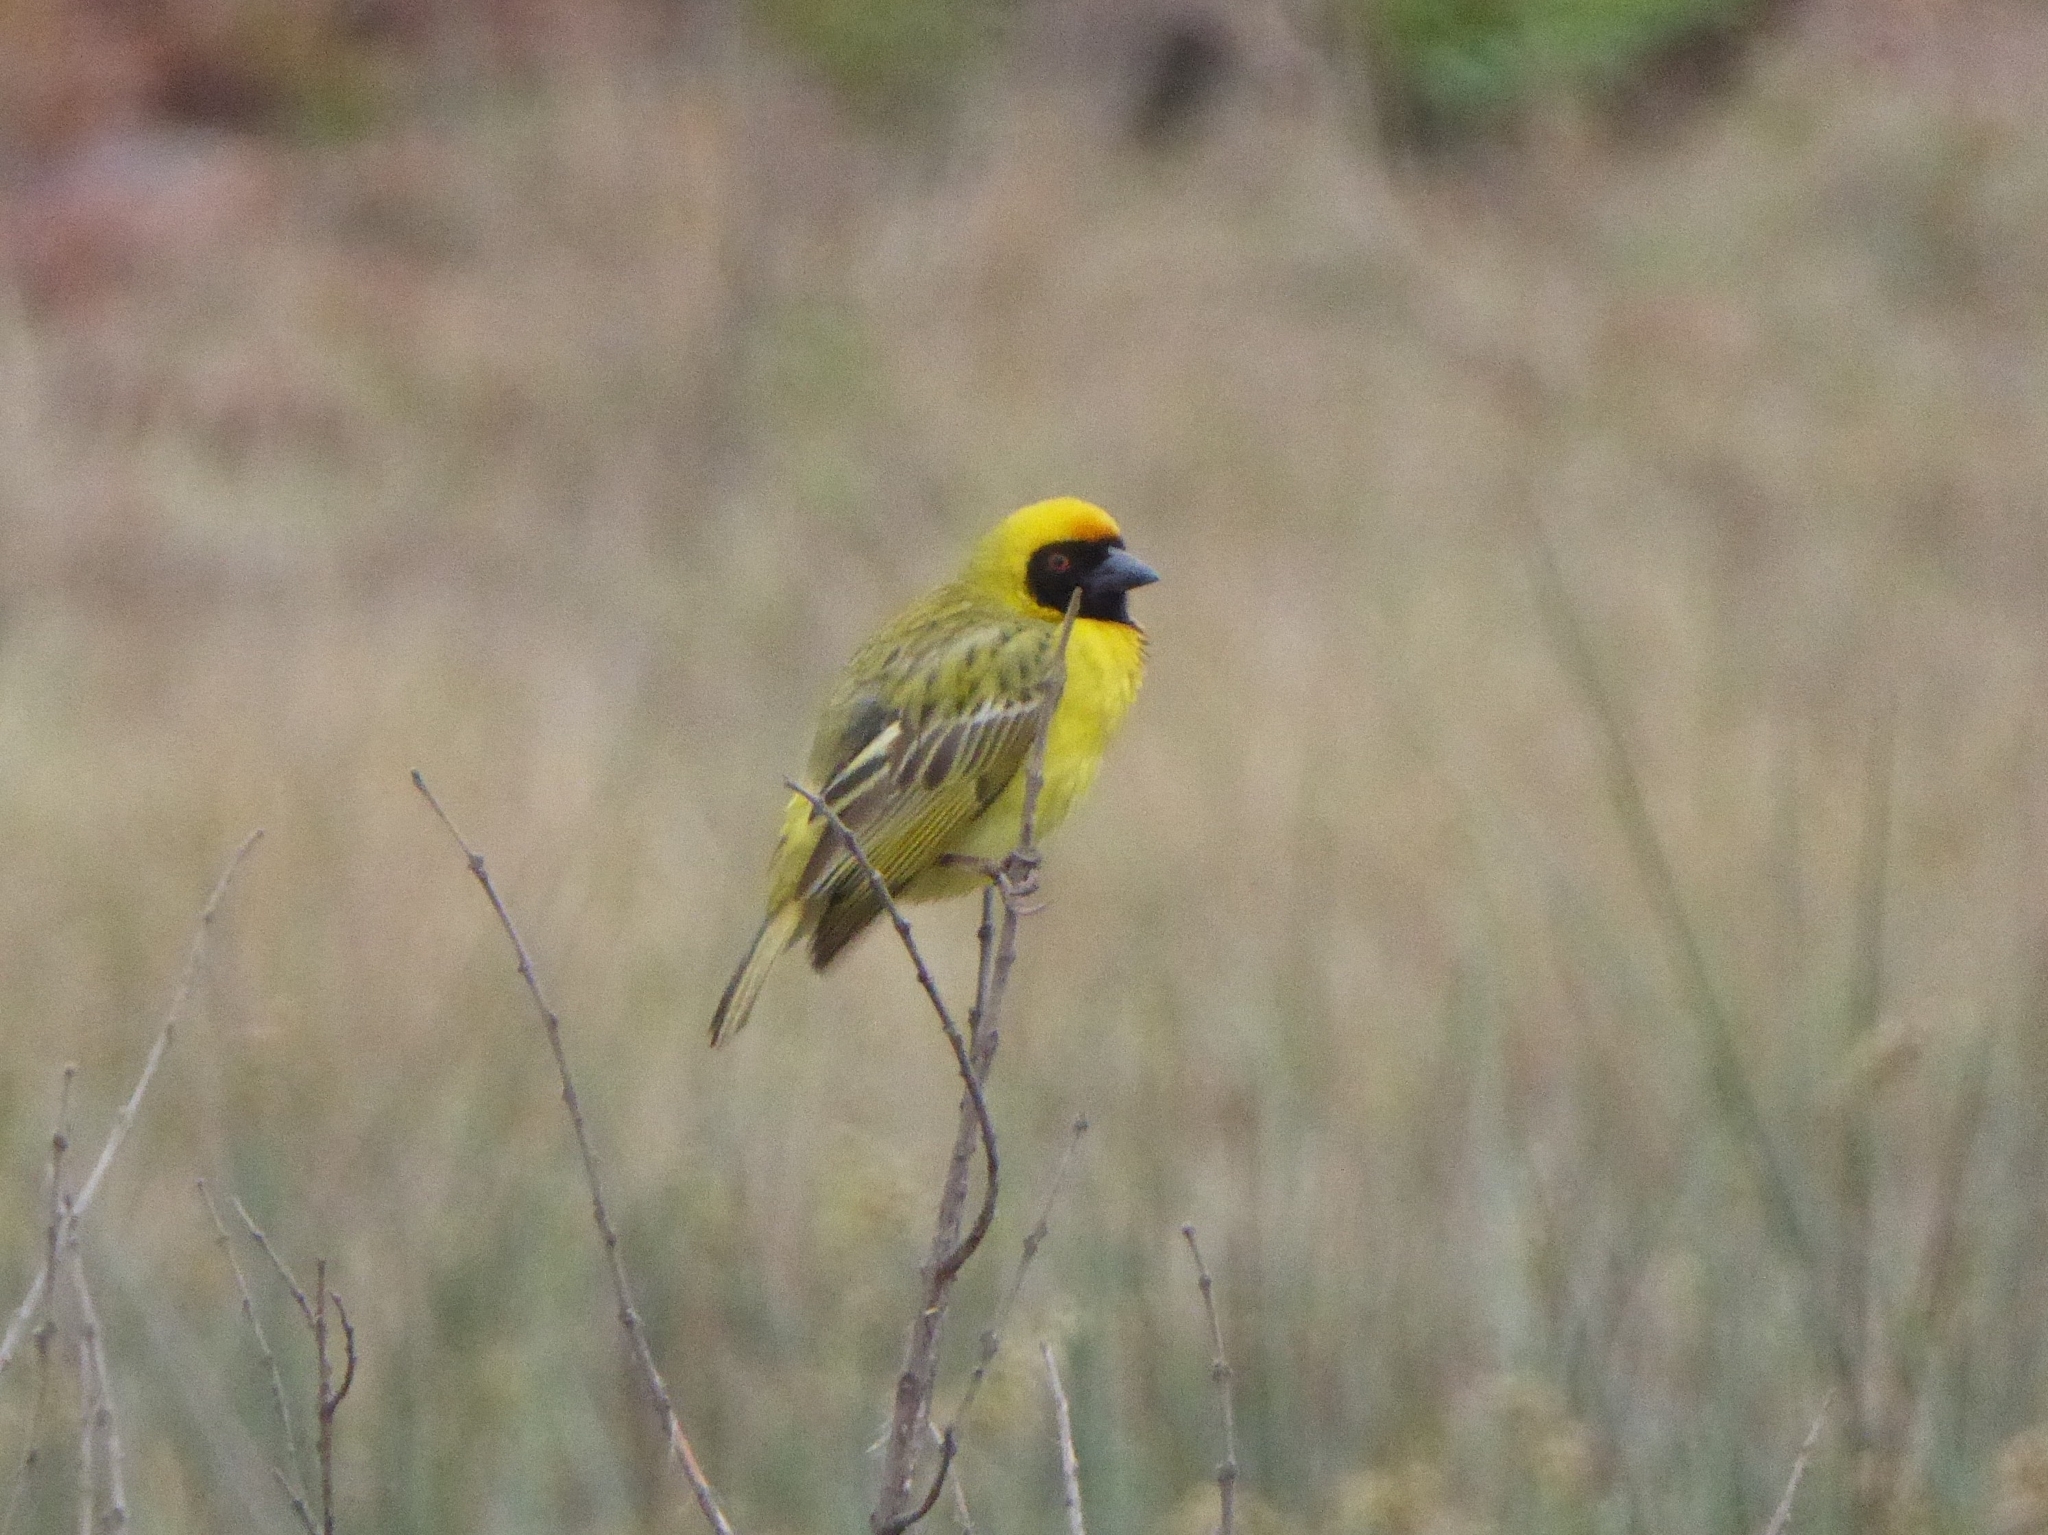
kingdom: Animalia
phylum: Chordata
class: Aves
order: Passeriformes
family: Ploceidae
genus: Ploceus
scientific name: Ploceus velatus
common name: Southern masked weaver
